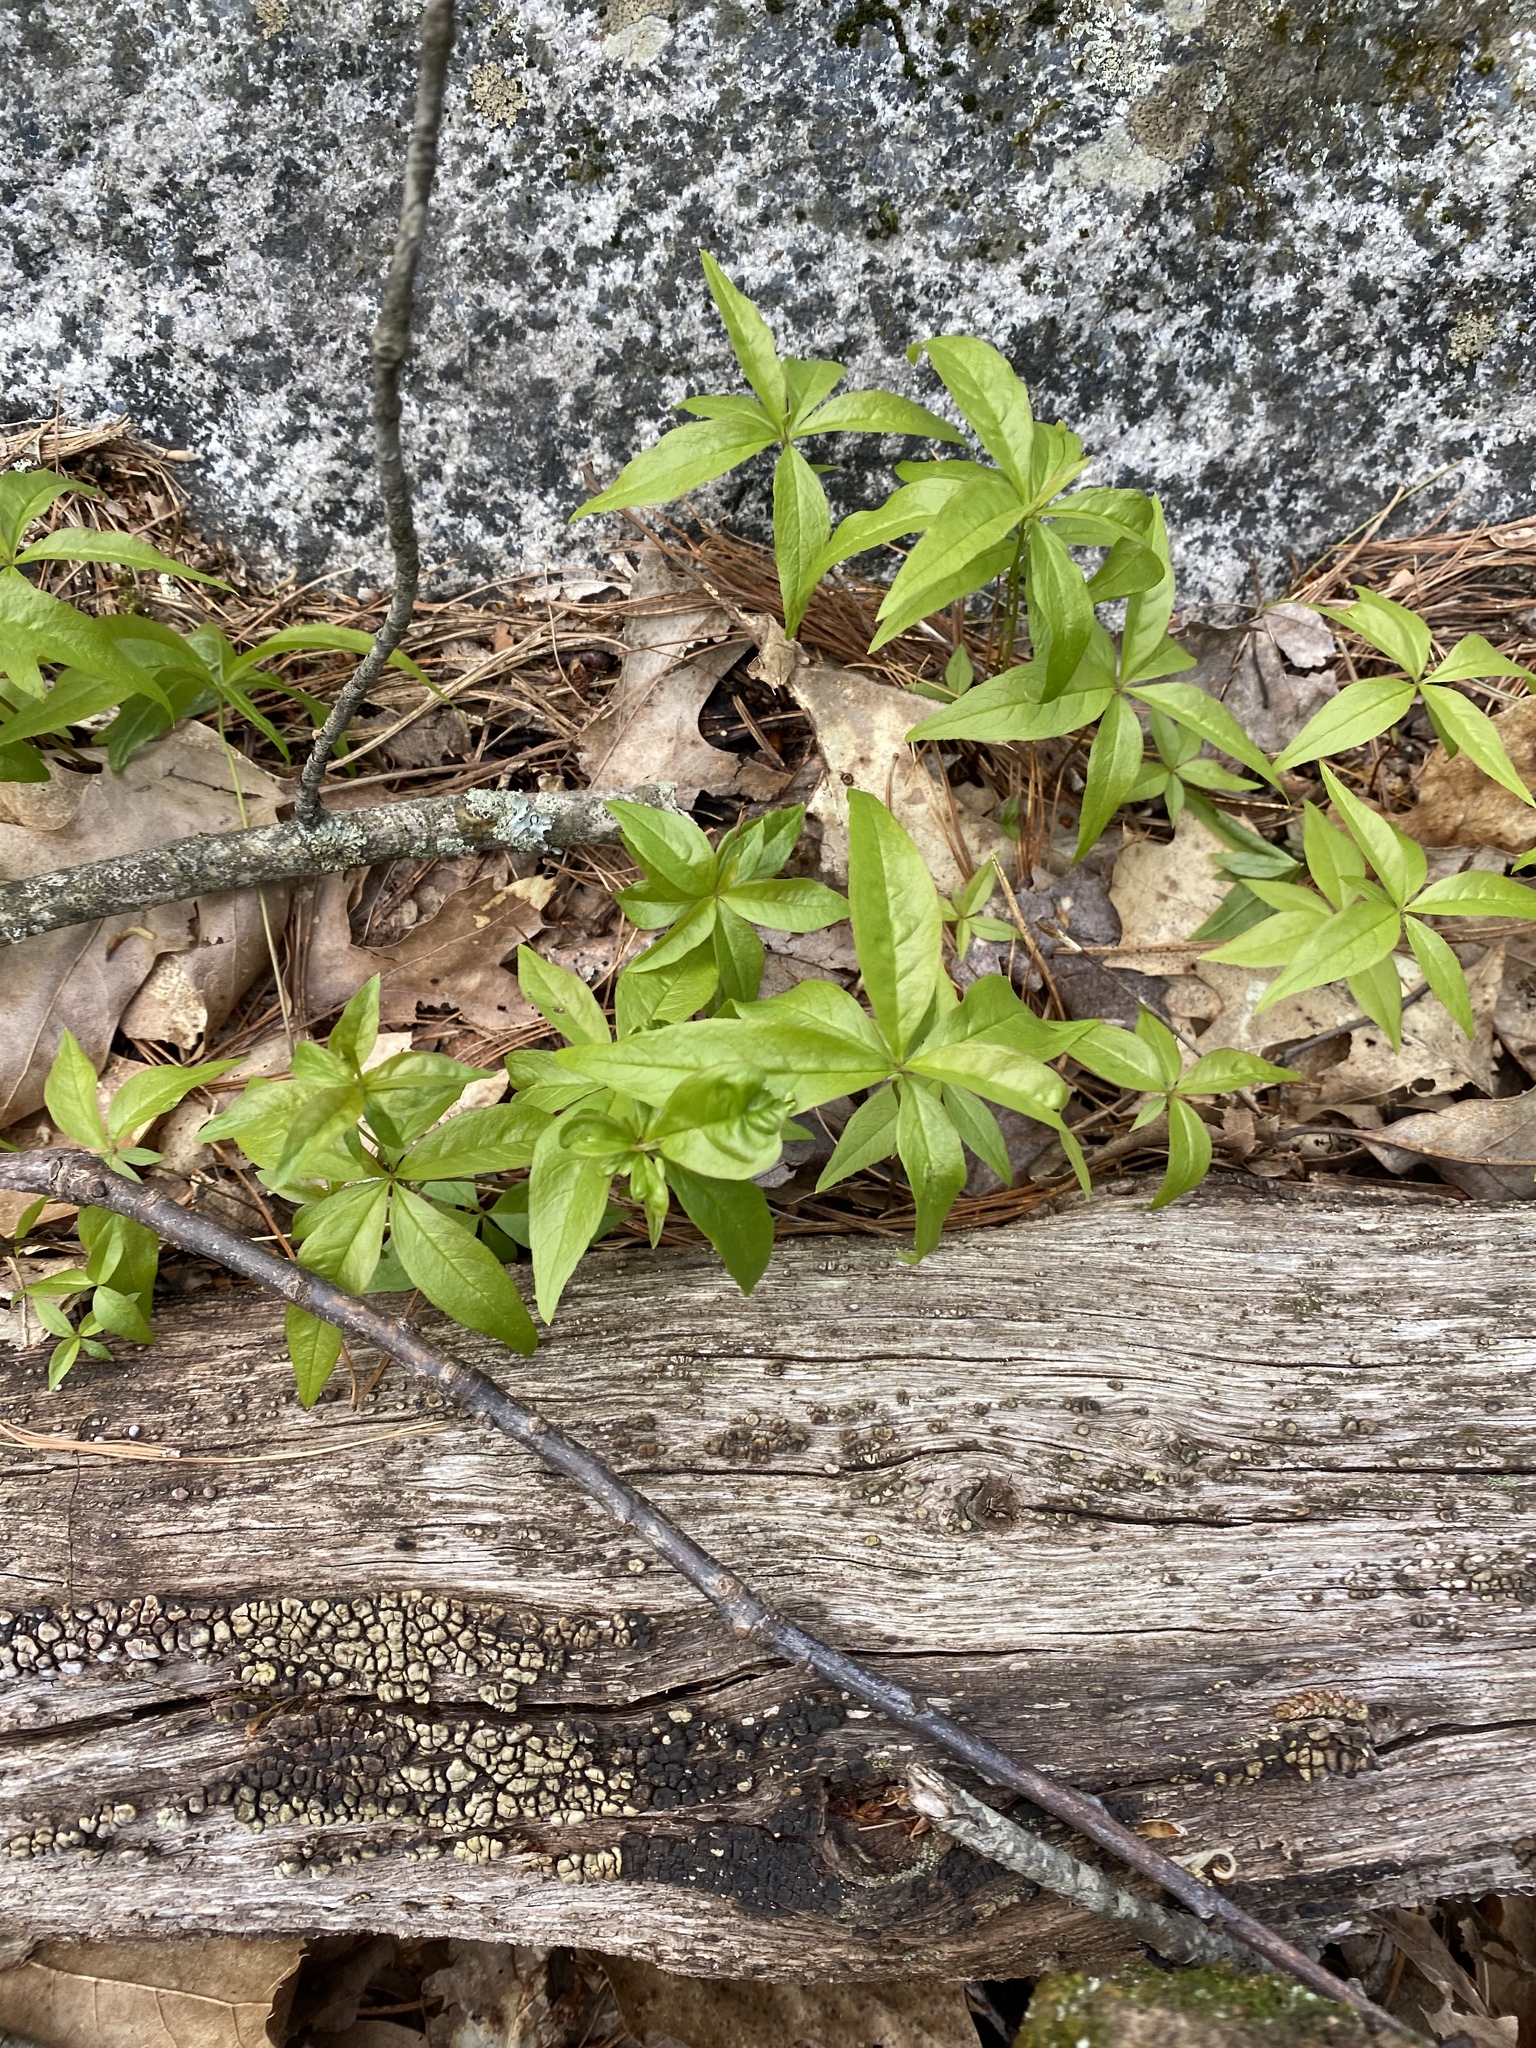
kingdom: Plantae
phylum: Tracheophyta
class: Magnoliopsida
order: Ericales
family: Primulaceae
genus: Lysimachia
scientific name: Lysimachia borealis
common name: American starflower
